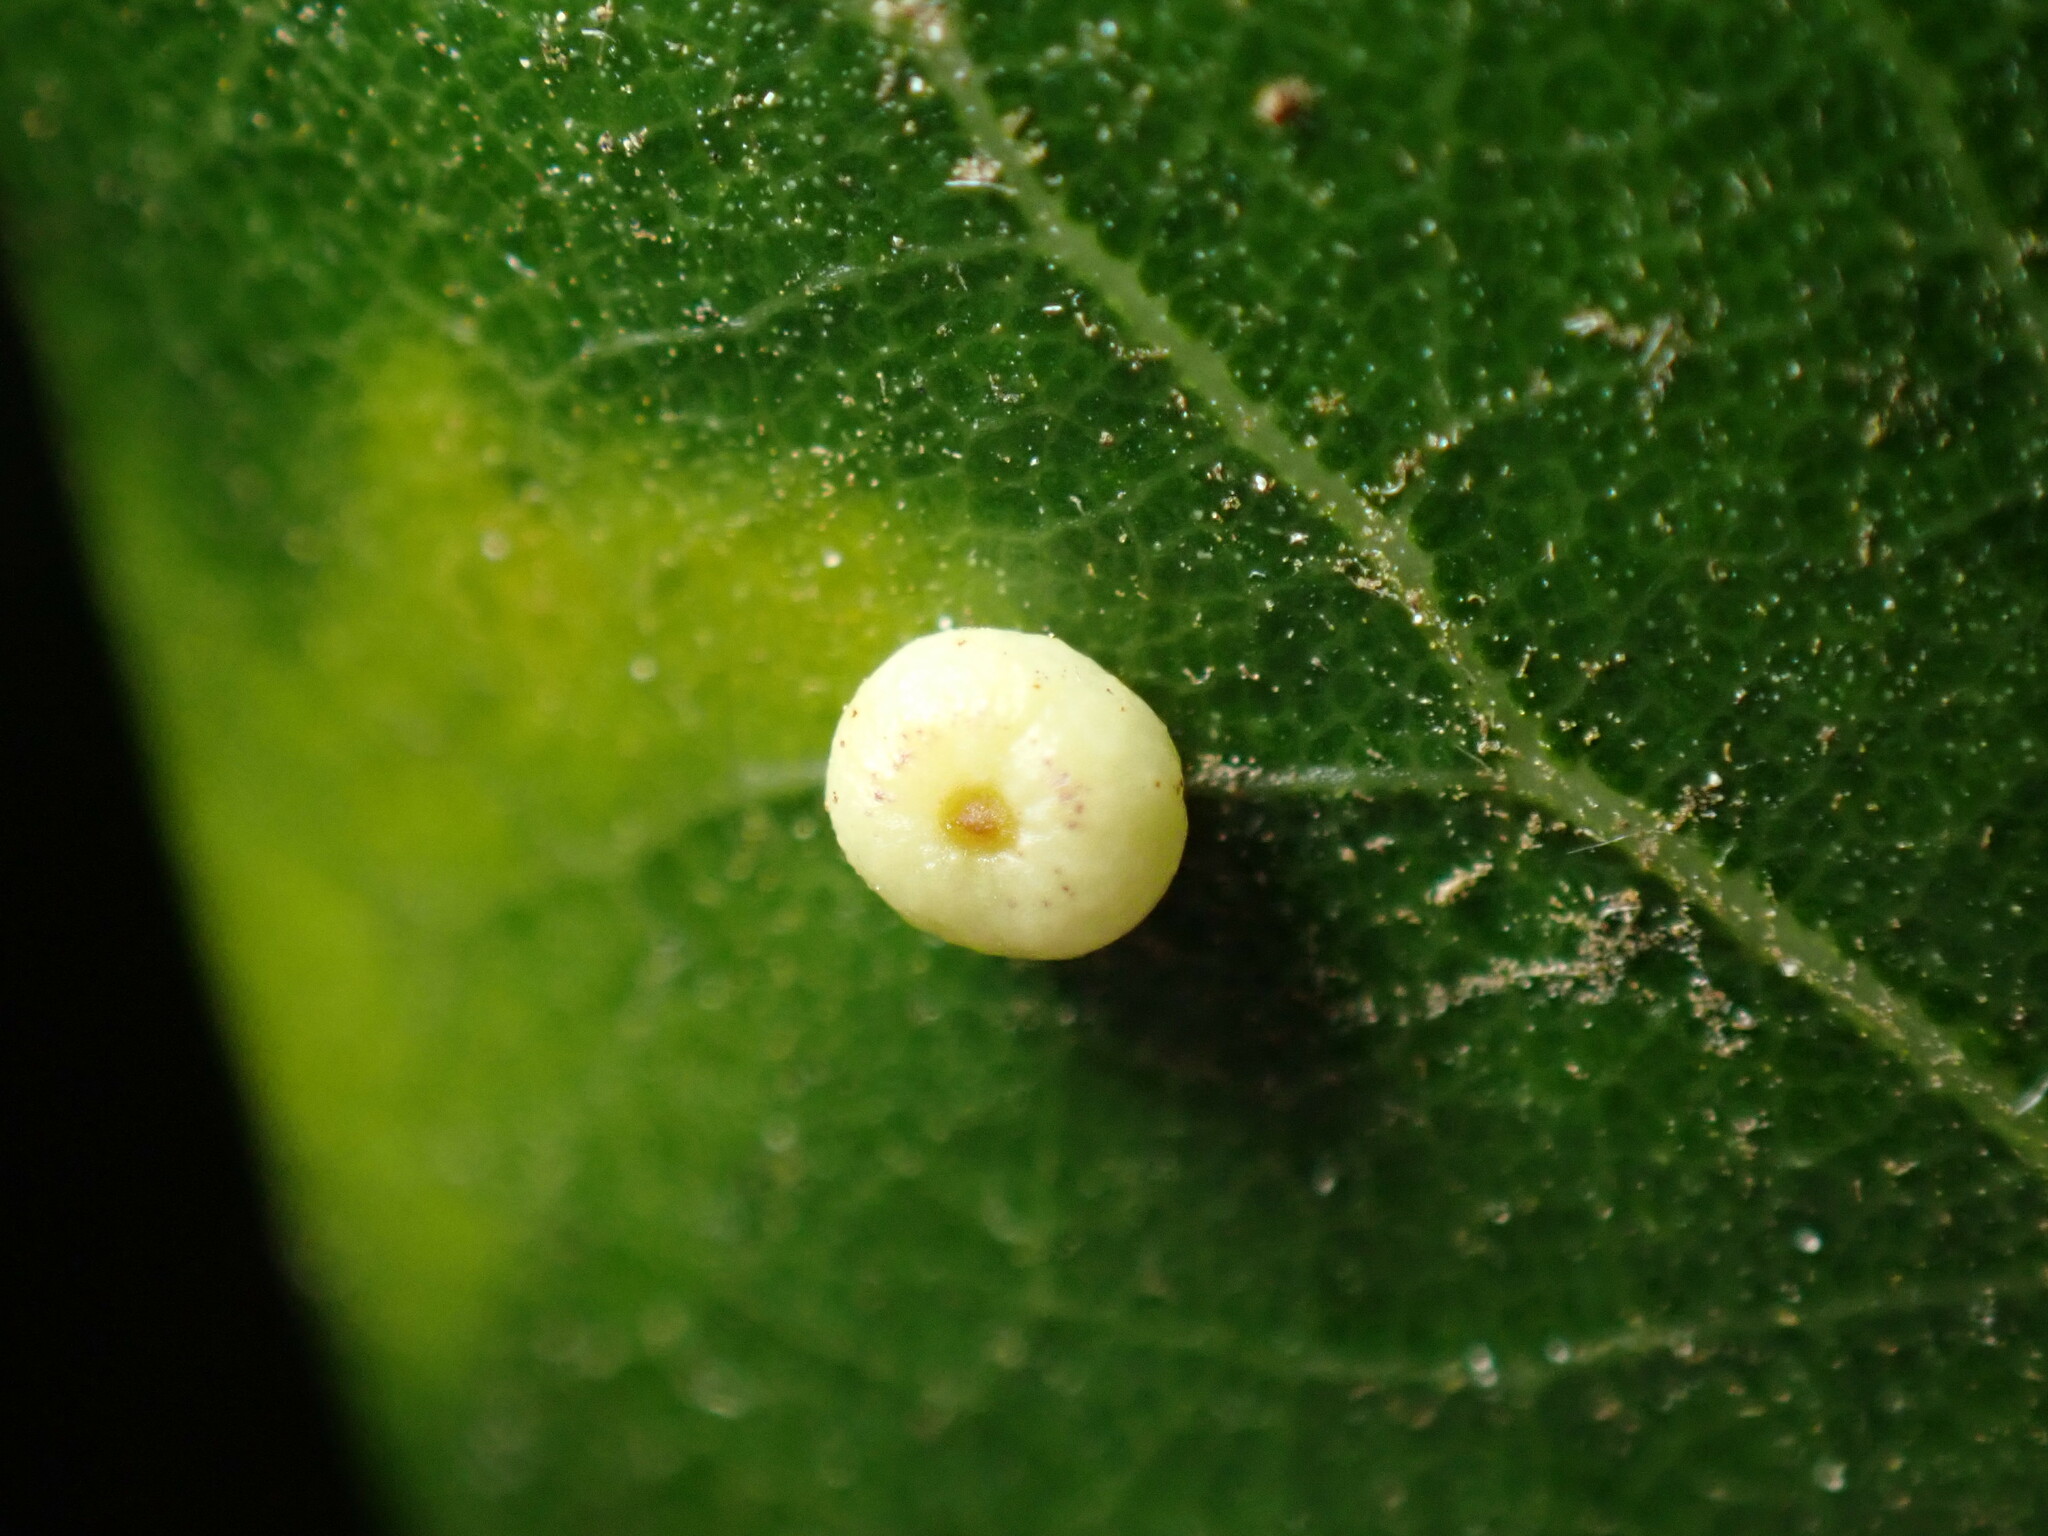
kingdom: Animalia
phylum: Arthropoda
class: Insecta
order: Hymenoptera
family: Cynipidae
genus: Dryocosmus
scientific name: Dryocosmus
